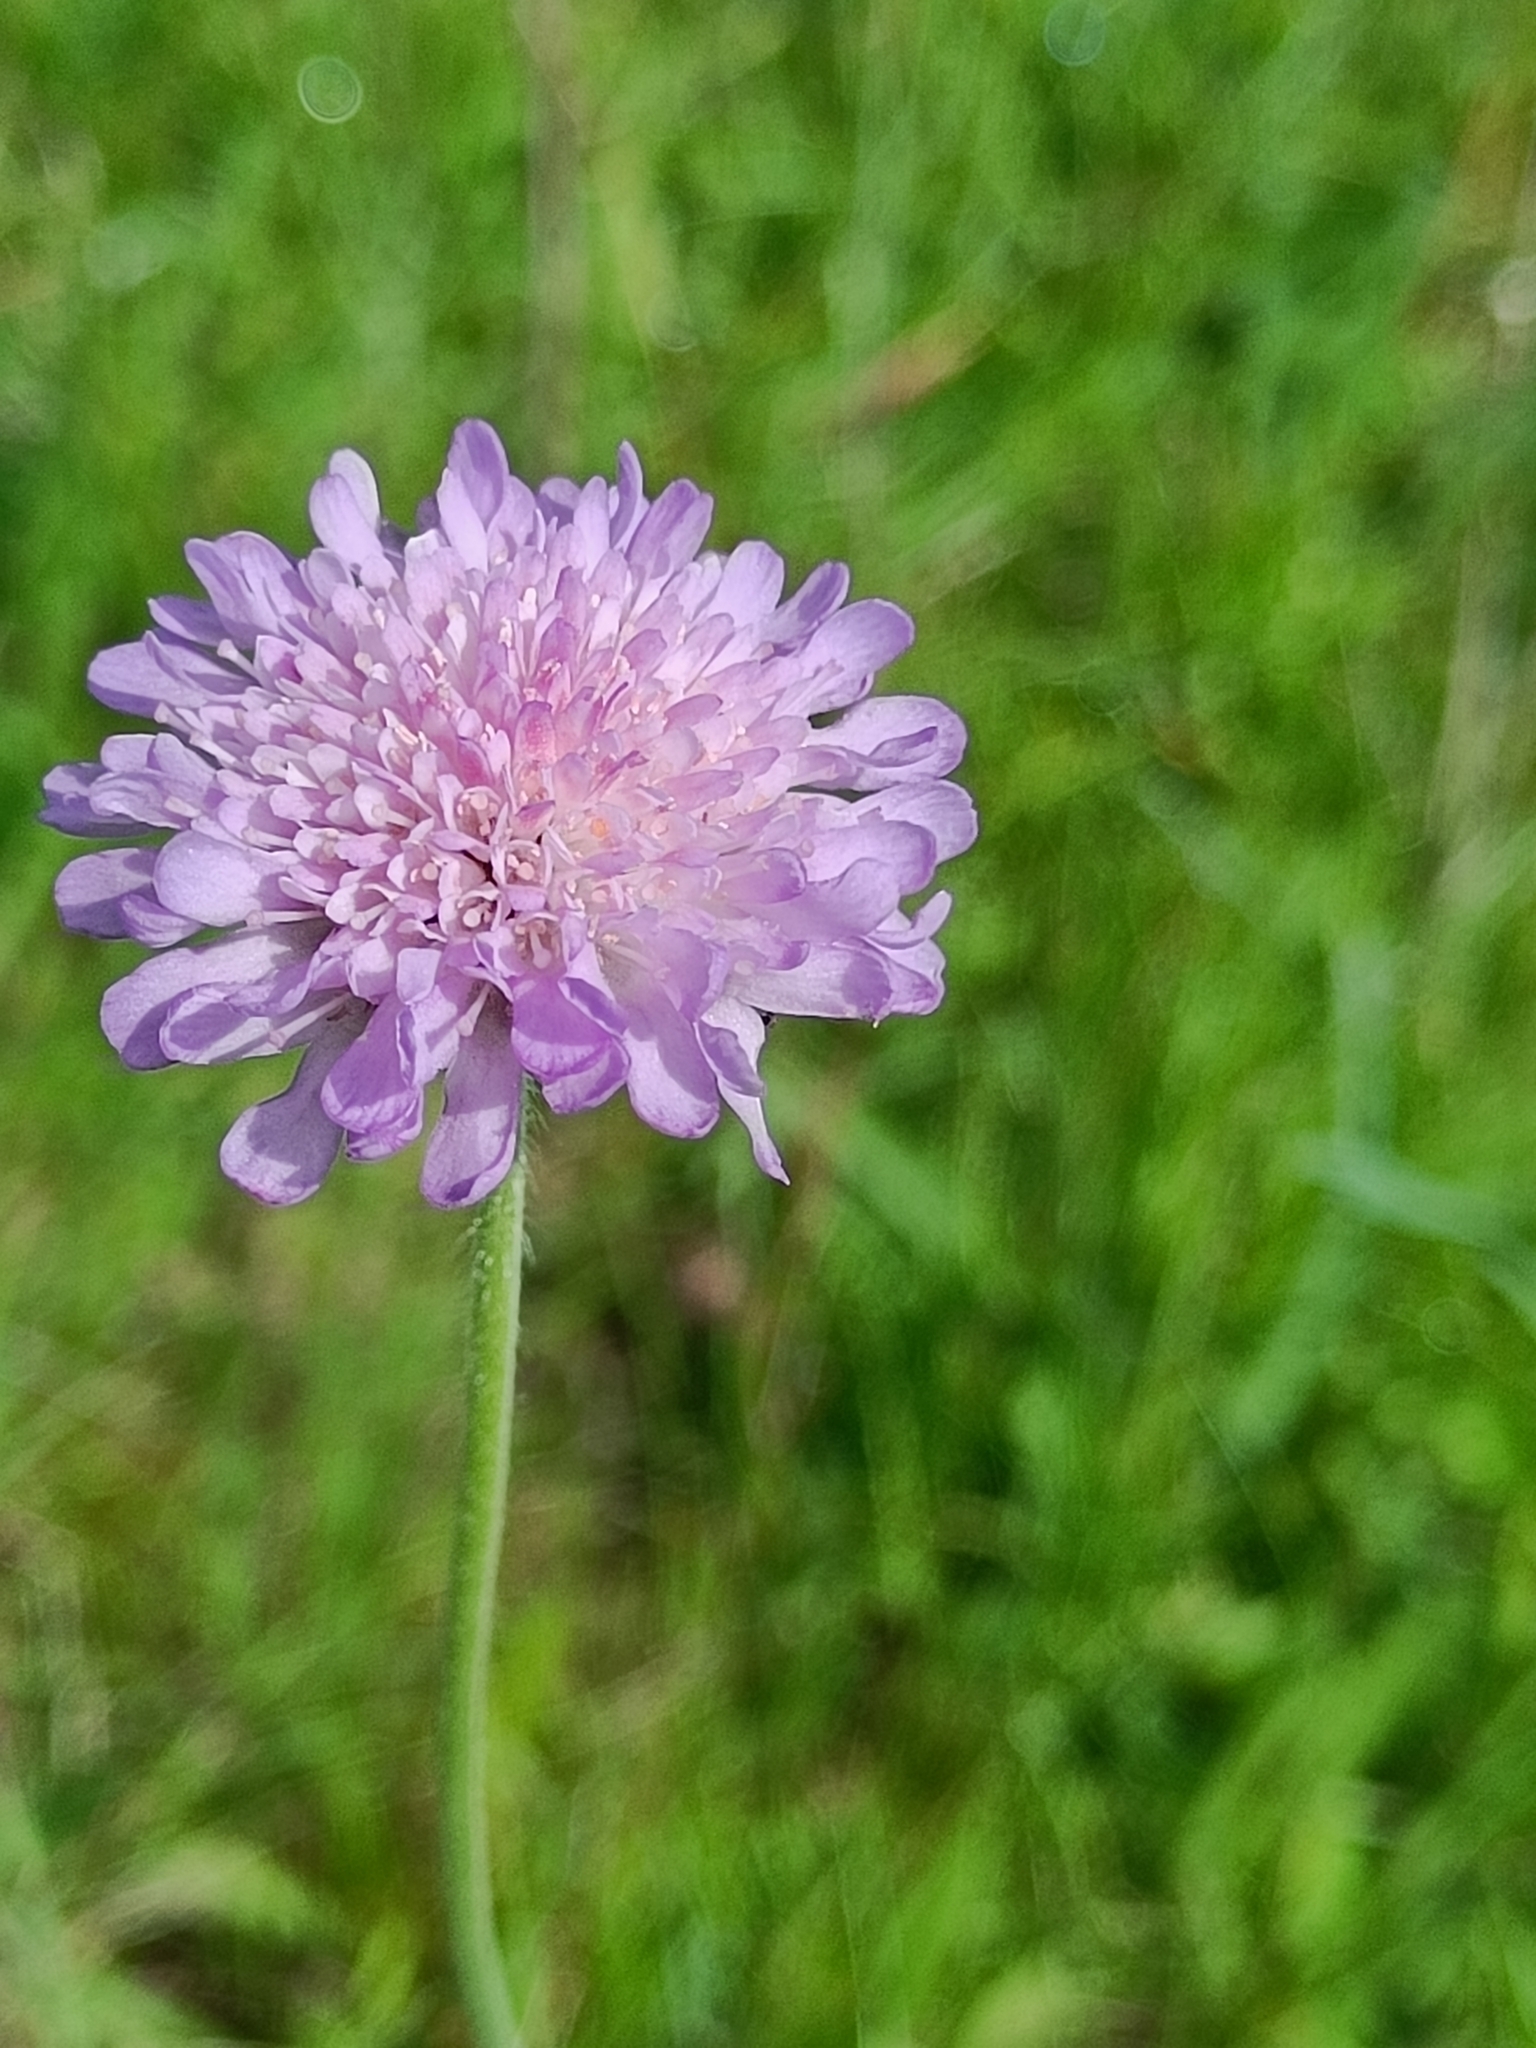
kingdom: Plantae
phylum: Tracheophyta
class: Magnoliopsida
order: Dipsacales
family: Caprifoliaceae
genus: Knautia
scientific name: Knautia arvensis
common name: Field scabiosa
